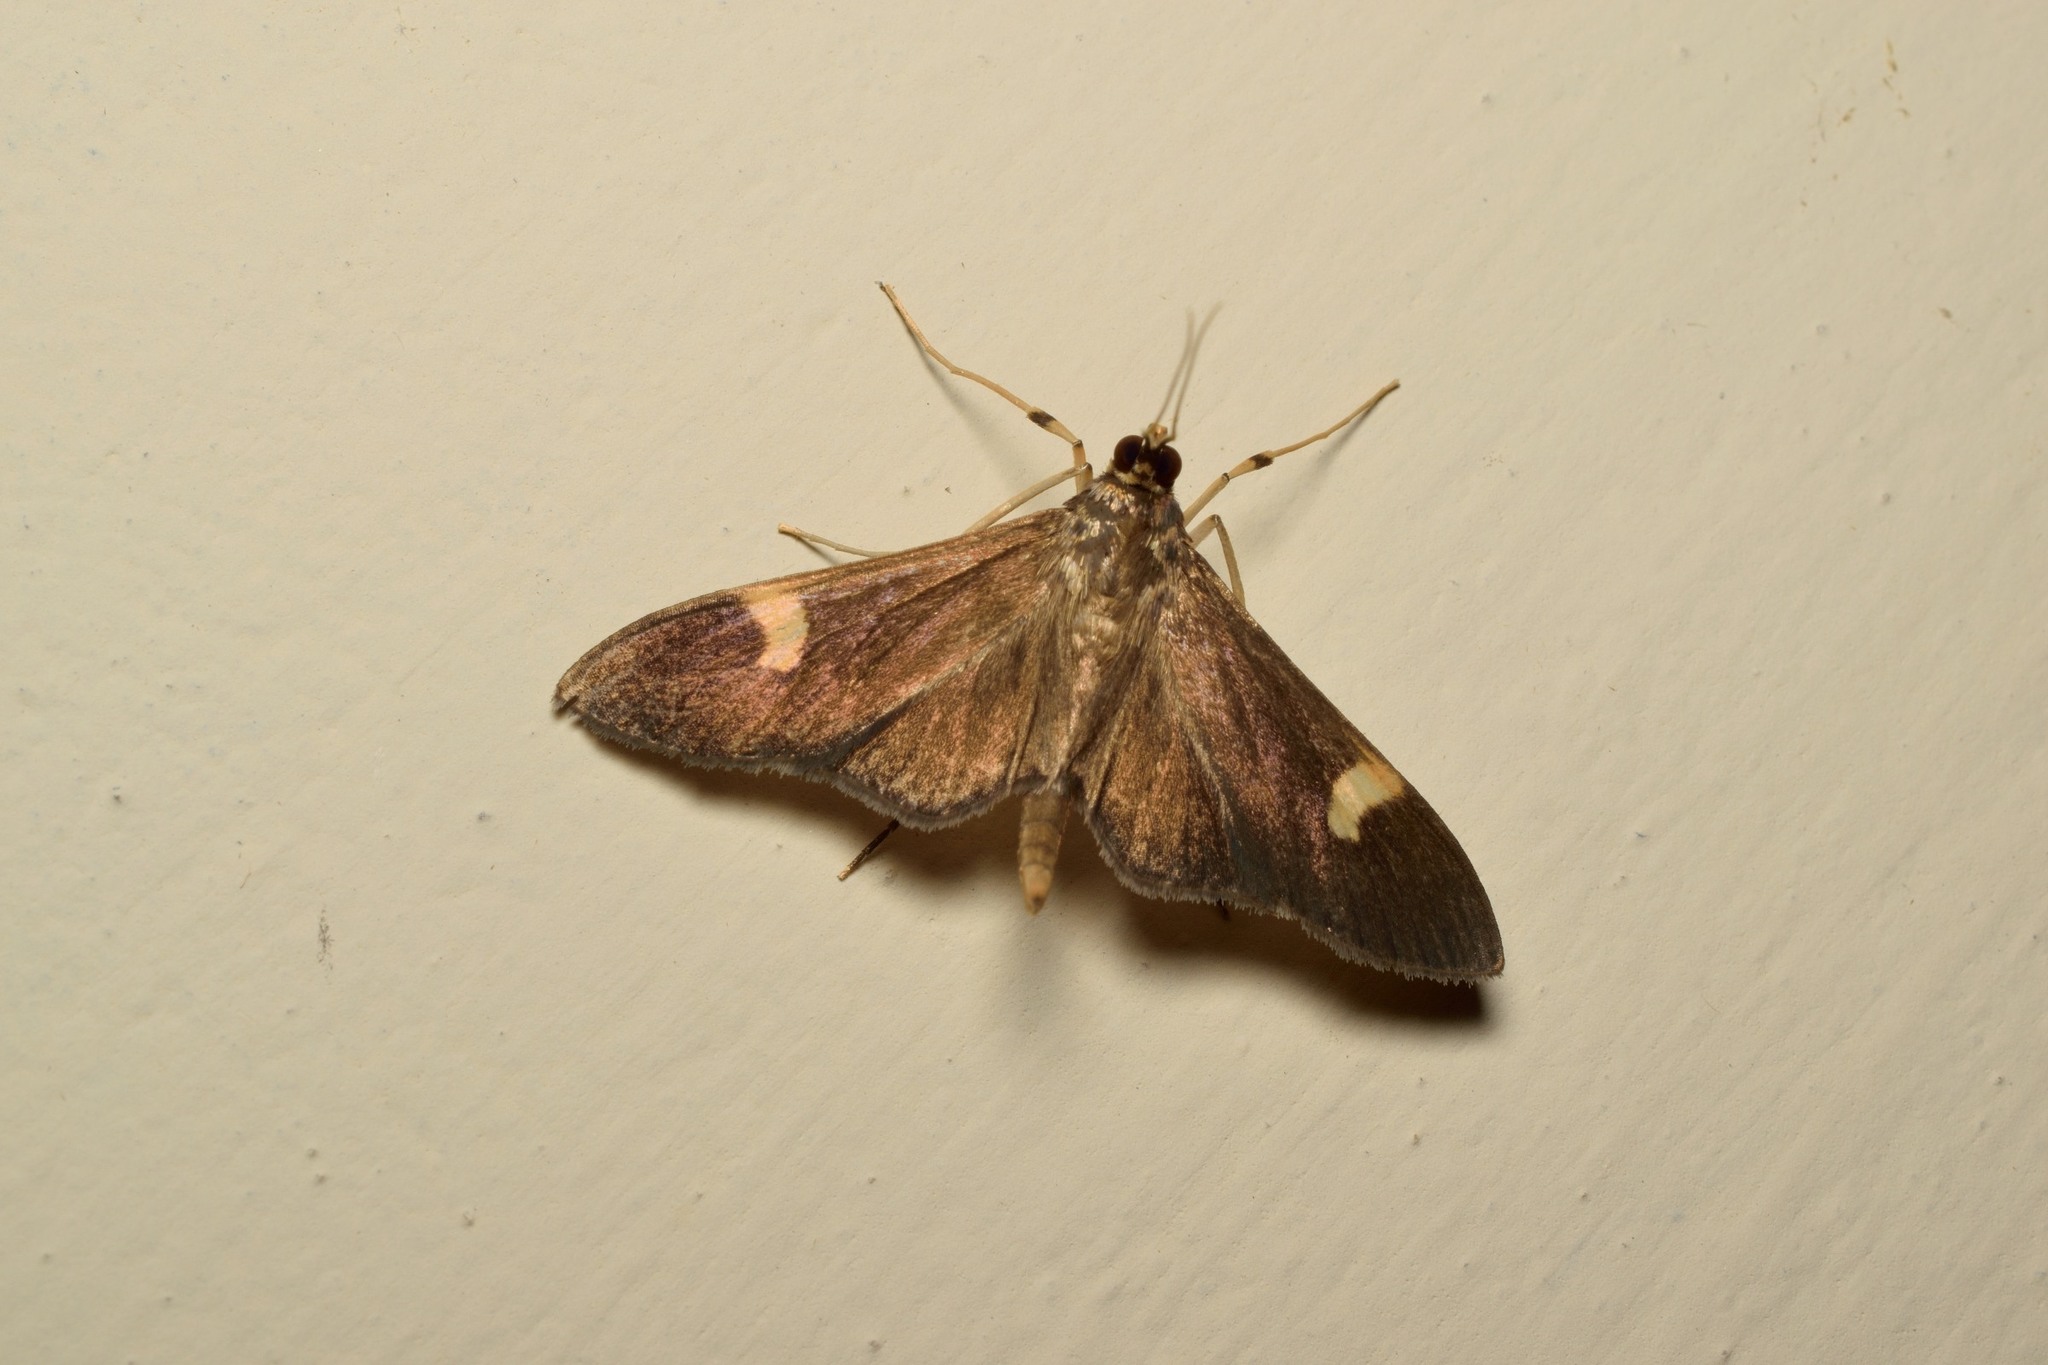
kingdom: Animalia
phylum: Arthropoda
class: Insecta
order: Lepidoptera
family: Crambidae
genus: Syllepte
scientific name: Syllepte semivialis
